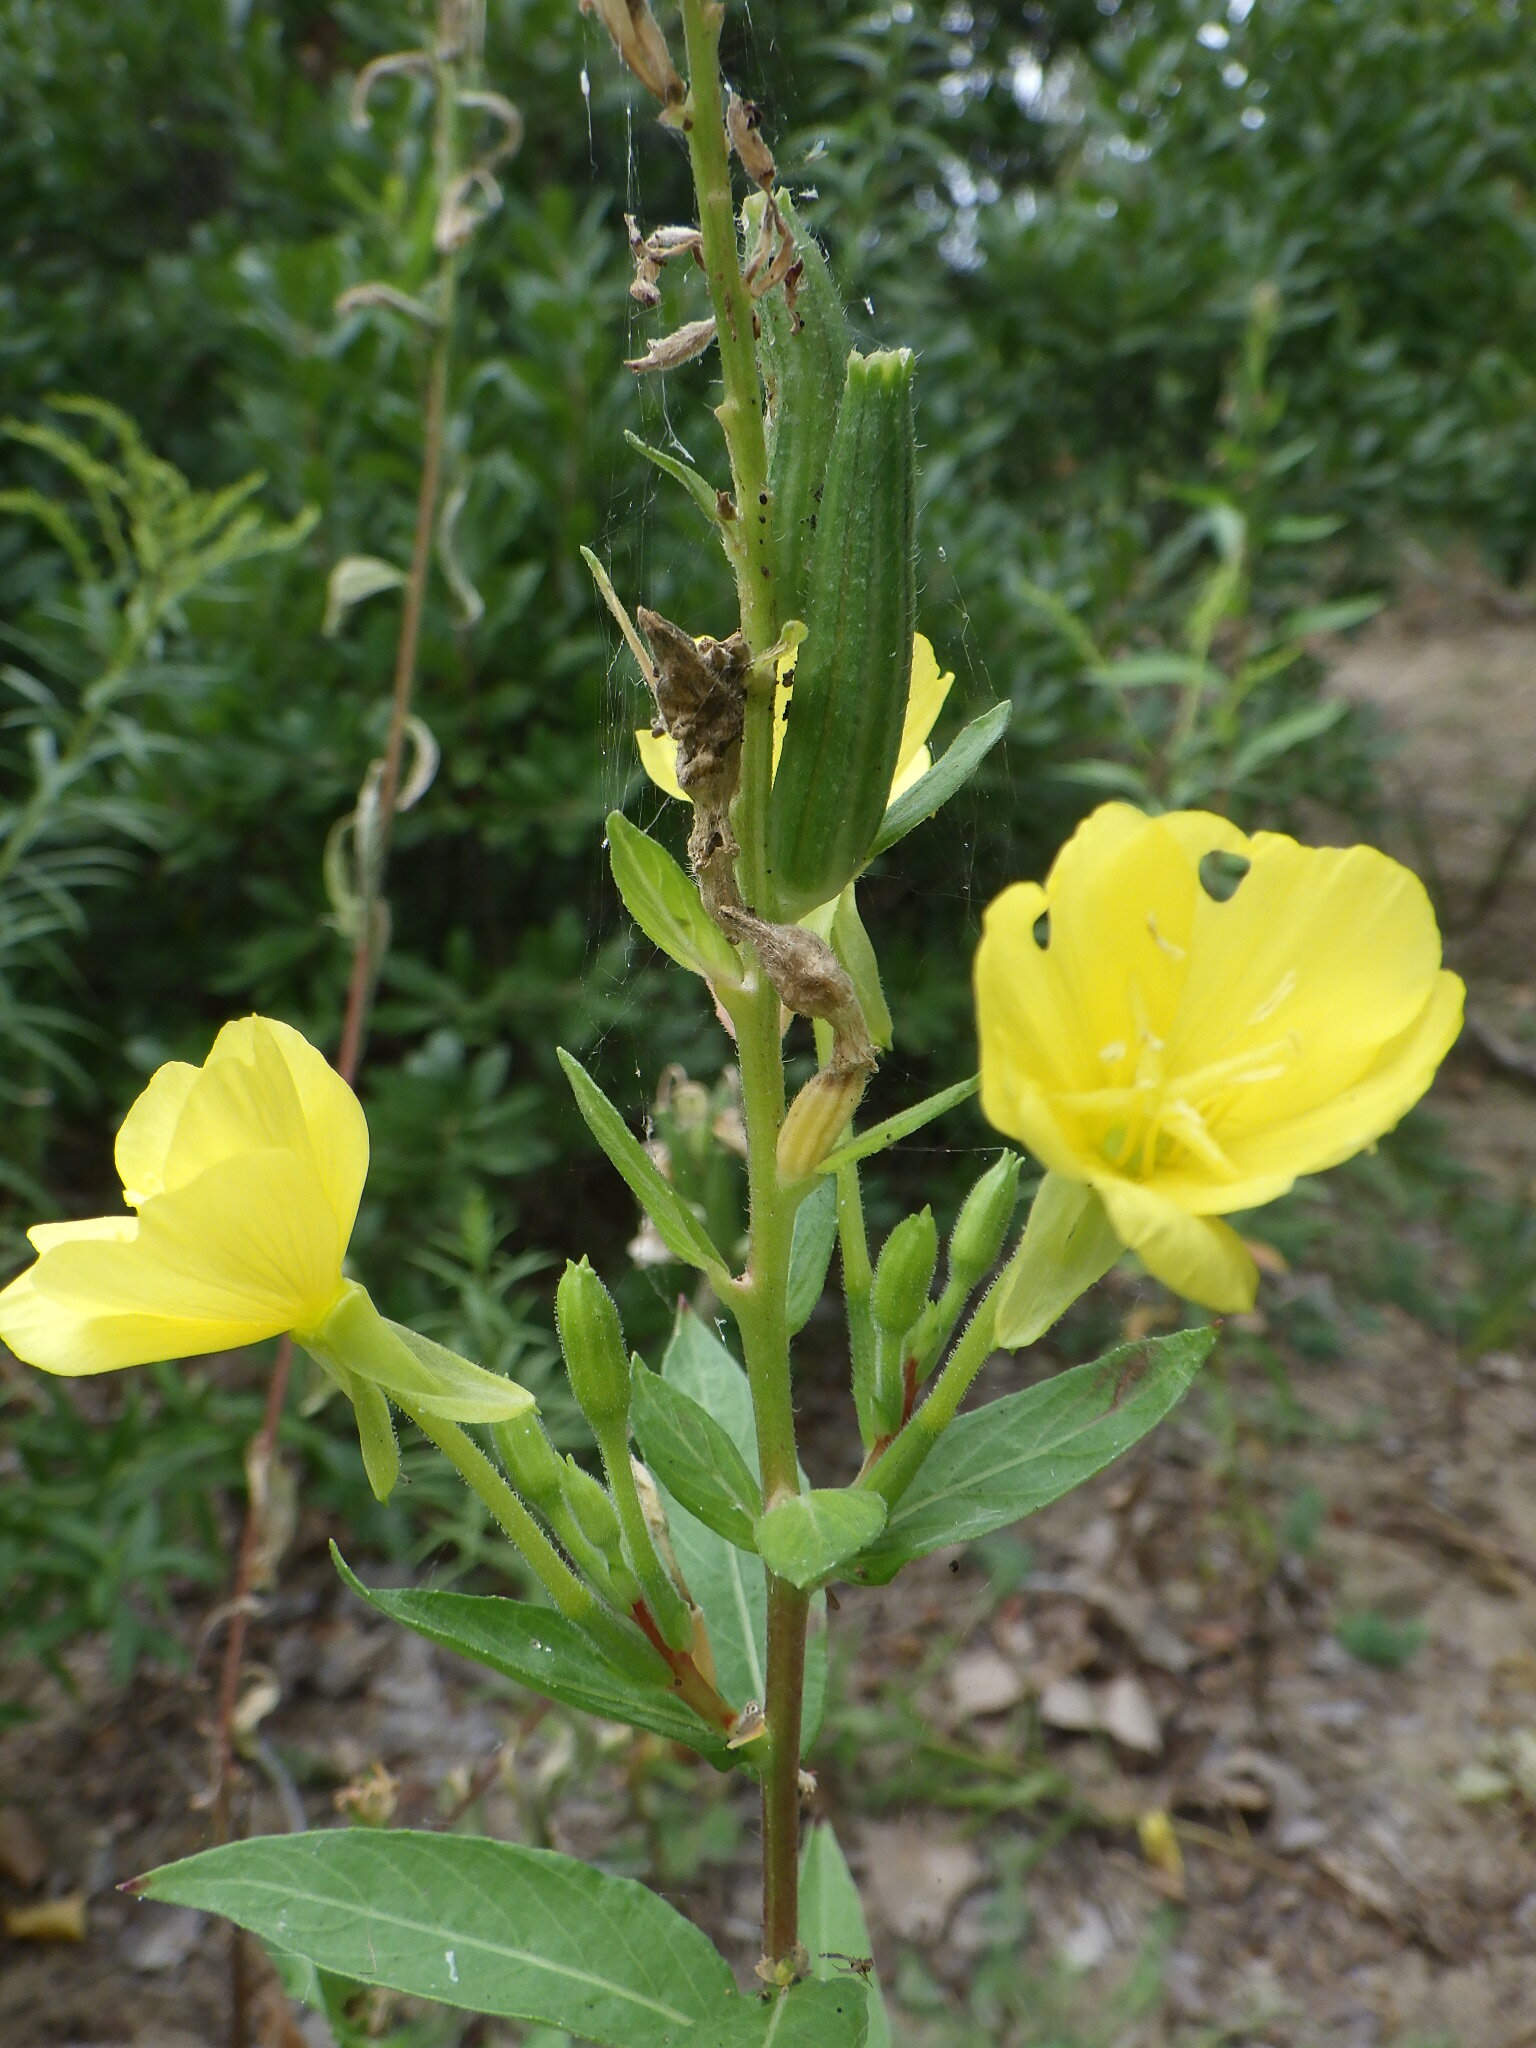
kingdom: Plantae
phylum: Tracheophyta
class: Magnoliopsida
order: Myrtales
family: Onagraceae
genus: Oenothera
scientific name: Oenothera biennis
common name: Common evening-primrose
